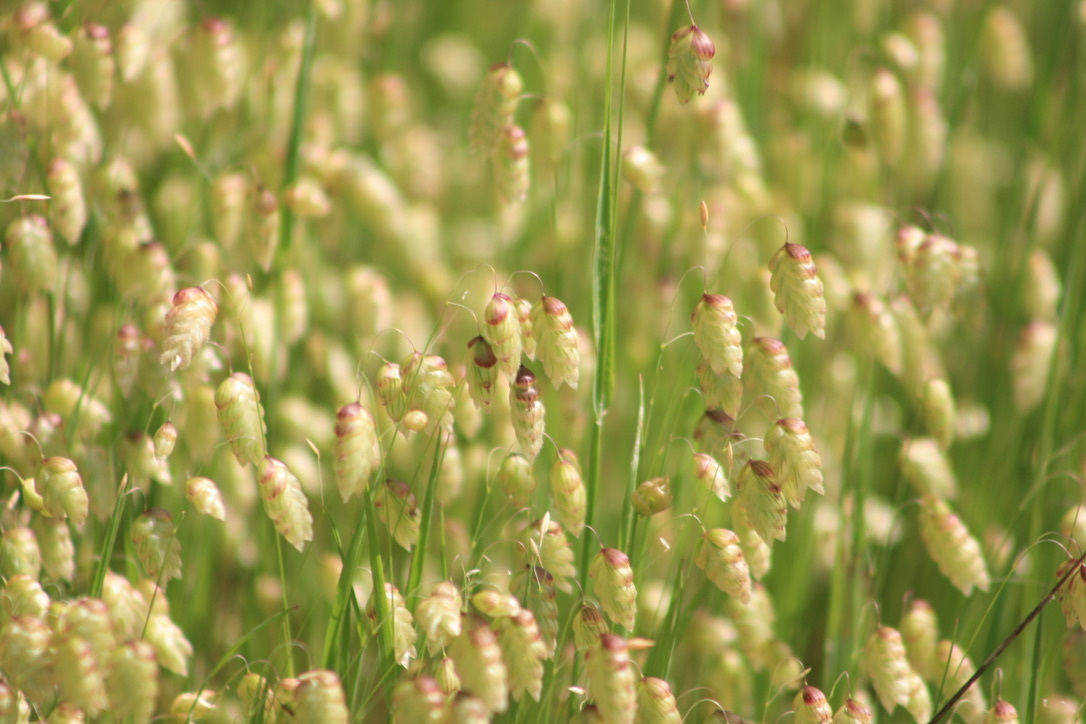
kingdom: Plantae
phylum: Tracheophyta
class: Liliopsida
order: Poales
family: Poaceae
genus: Briza
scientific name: Briza maxima
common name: Big quakinggrass
